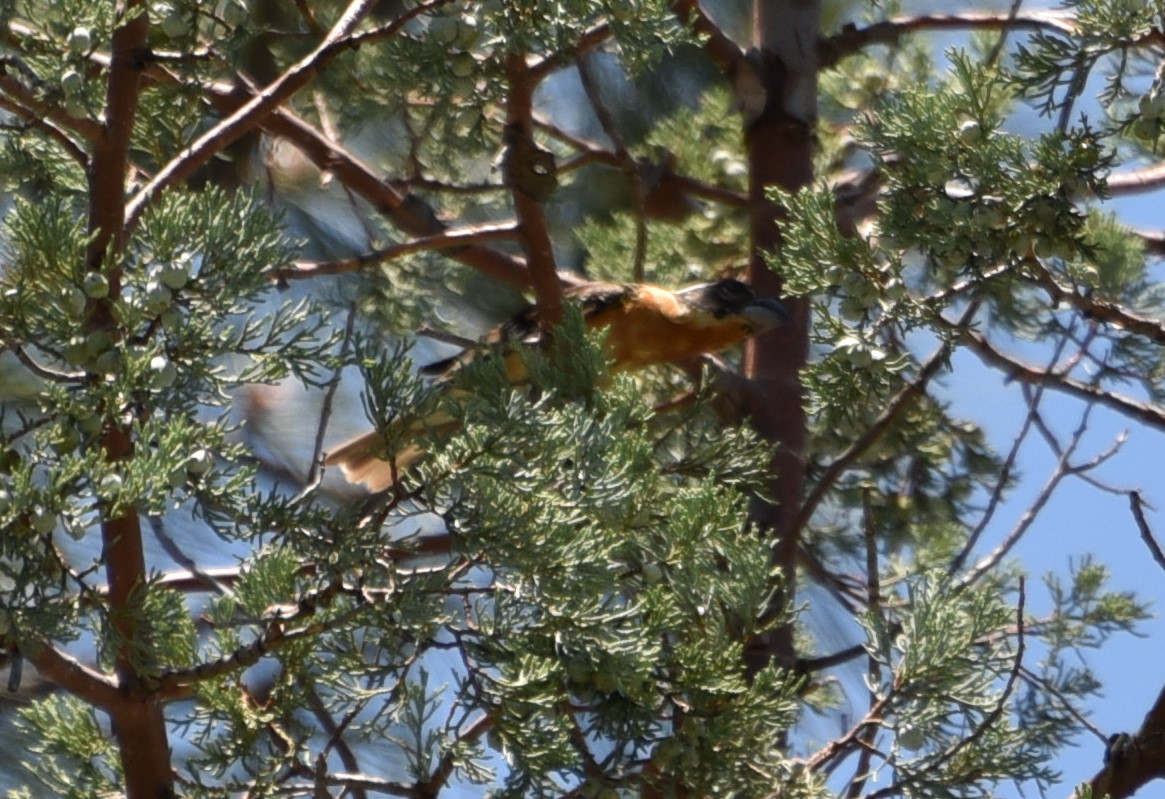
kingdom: Animalia
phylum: Chordata
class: Aves
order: Passeriformes
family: Cardinalidae
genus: Pheucticus
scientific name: Pheucticus melanocephalus
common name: Black-headed grosbeak
